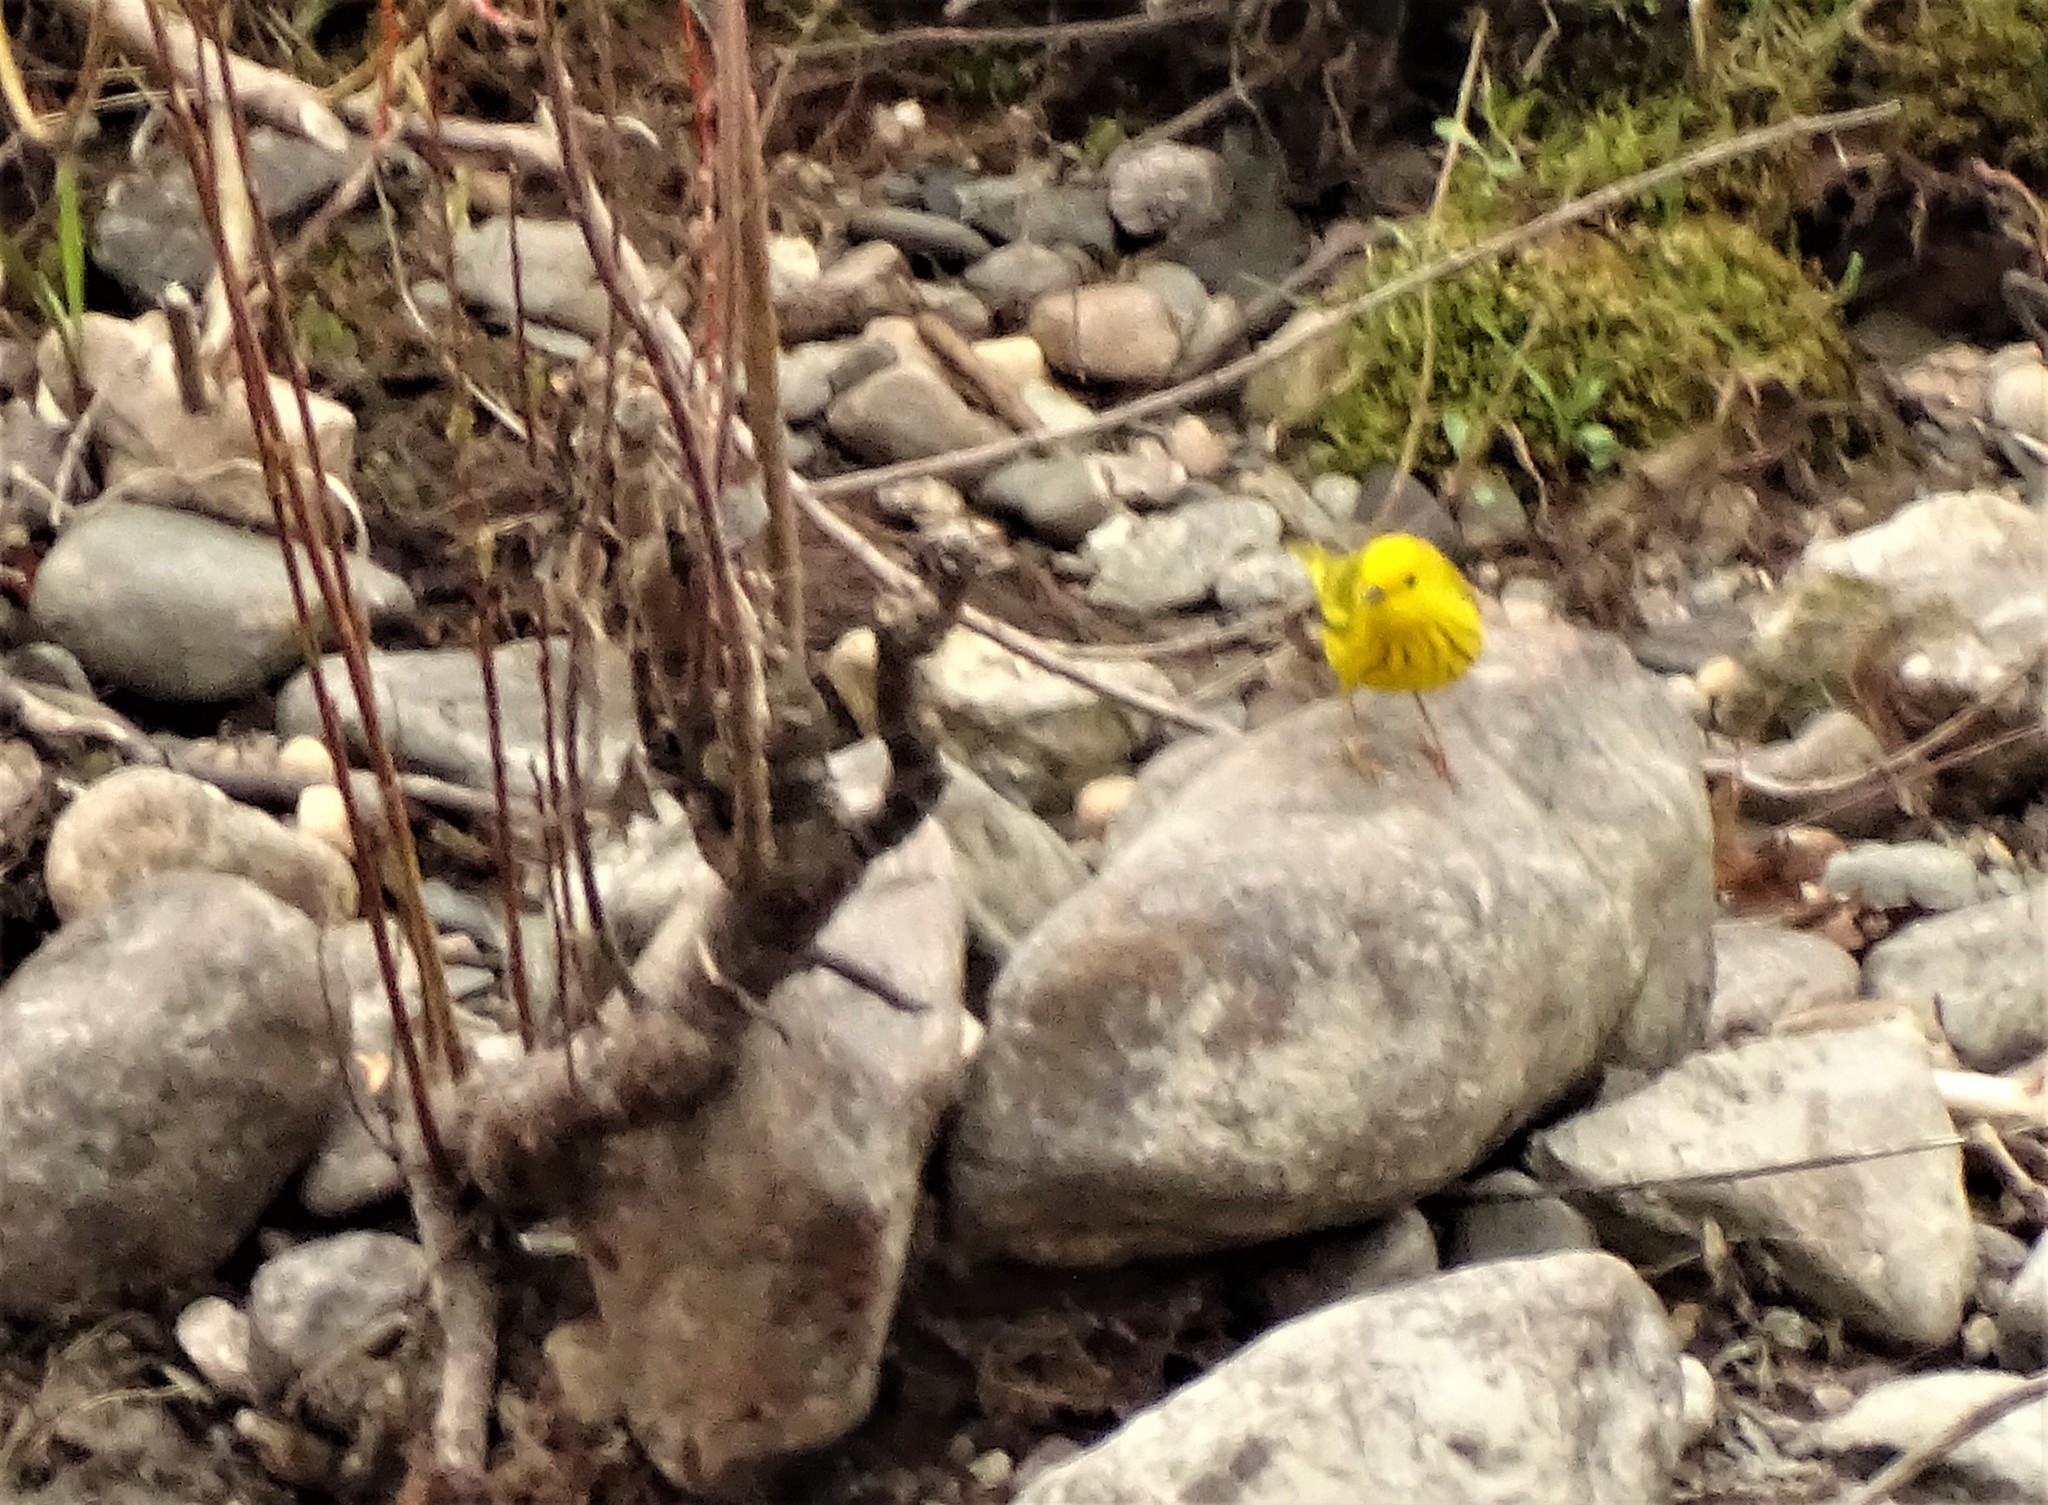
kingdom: Animalia
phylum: Chordata
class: Aves
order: Passeriformes
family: Parulidae
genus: Setophaga
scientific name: Setophaga petechia
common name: Yellow warbler
